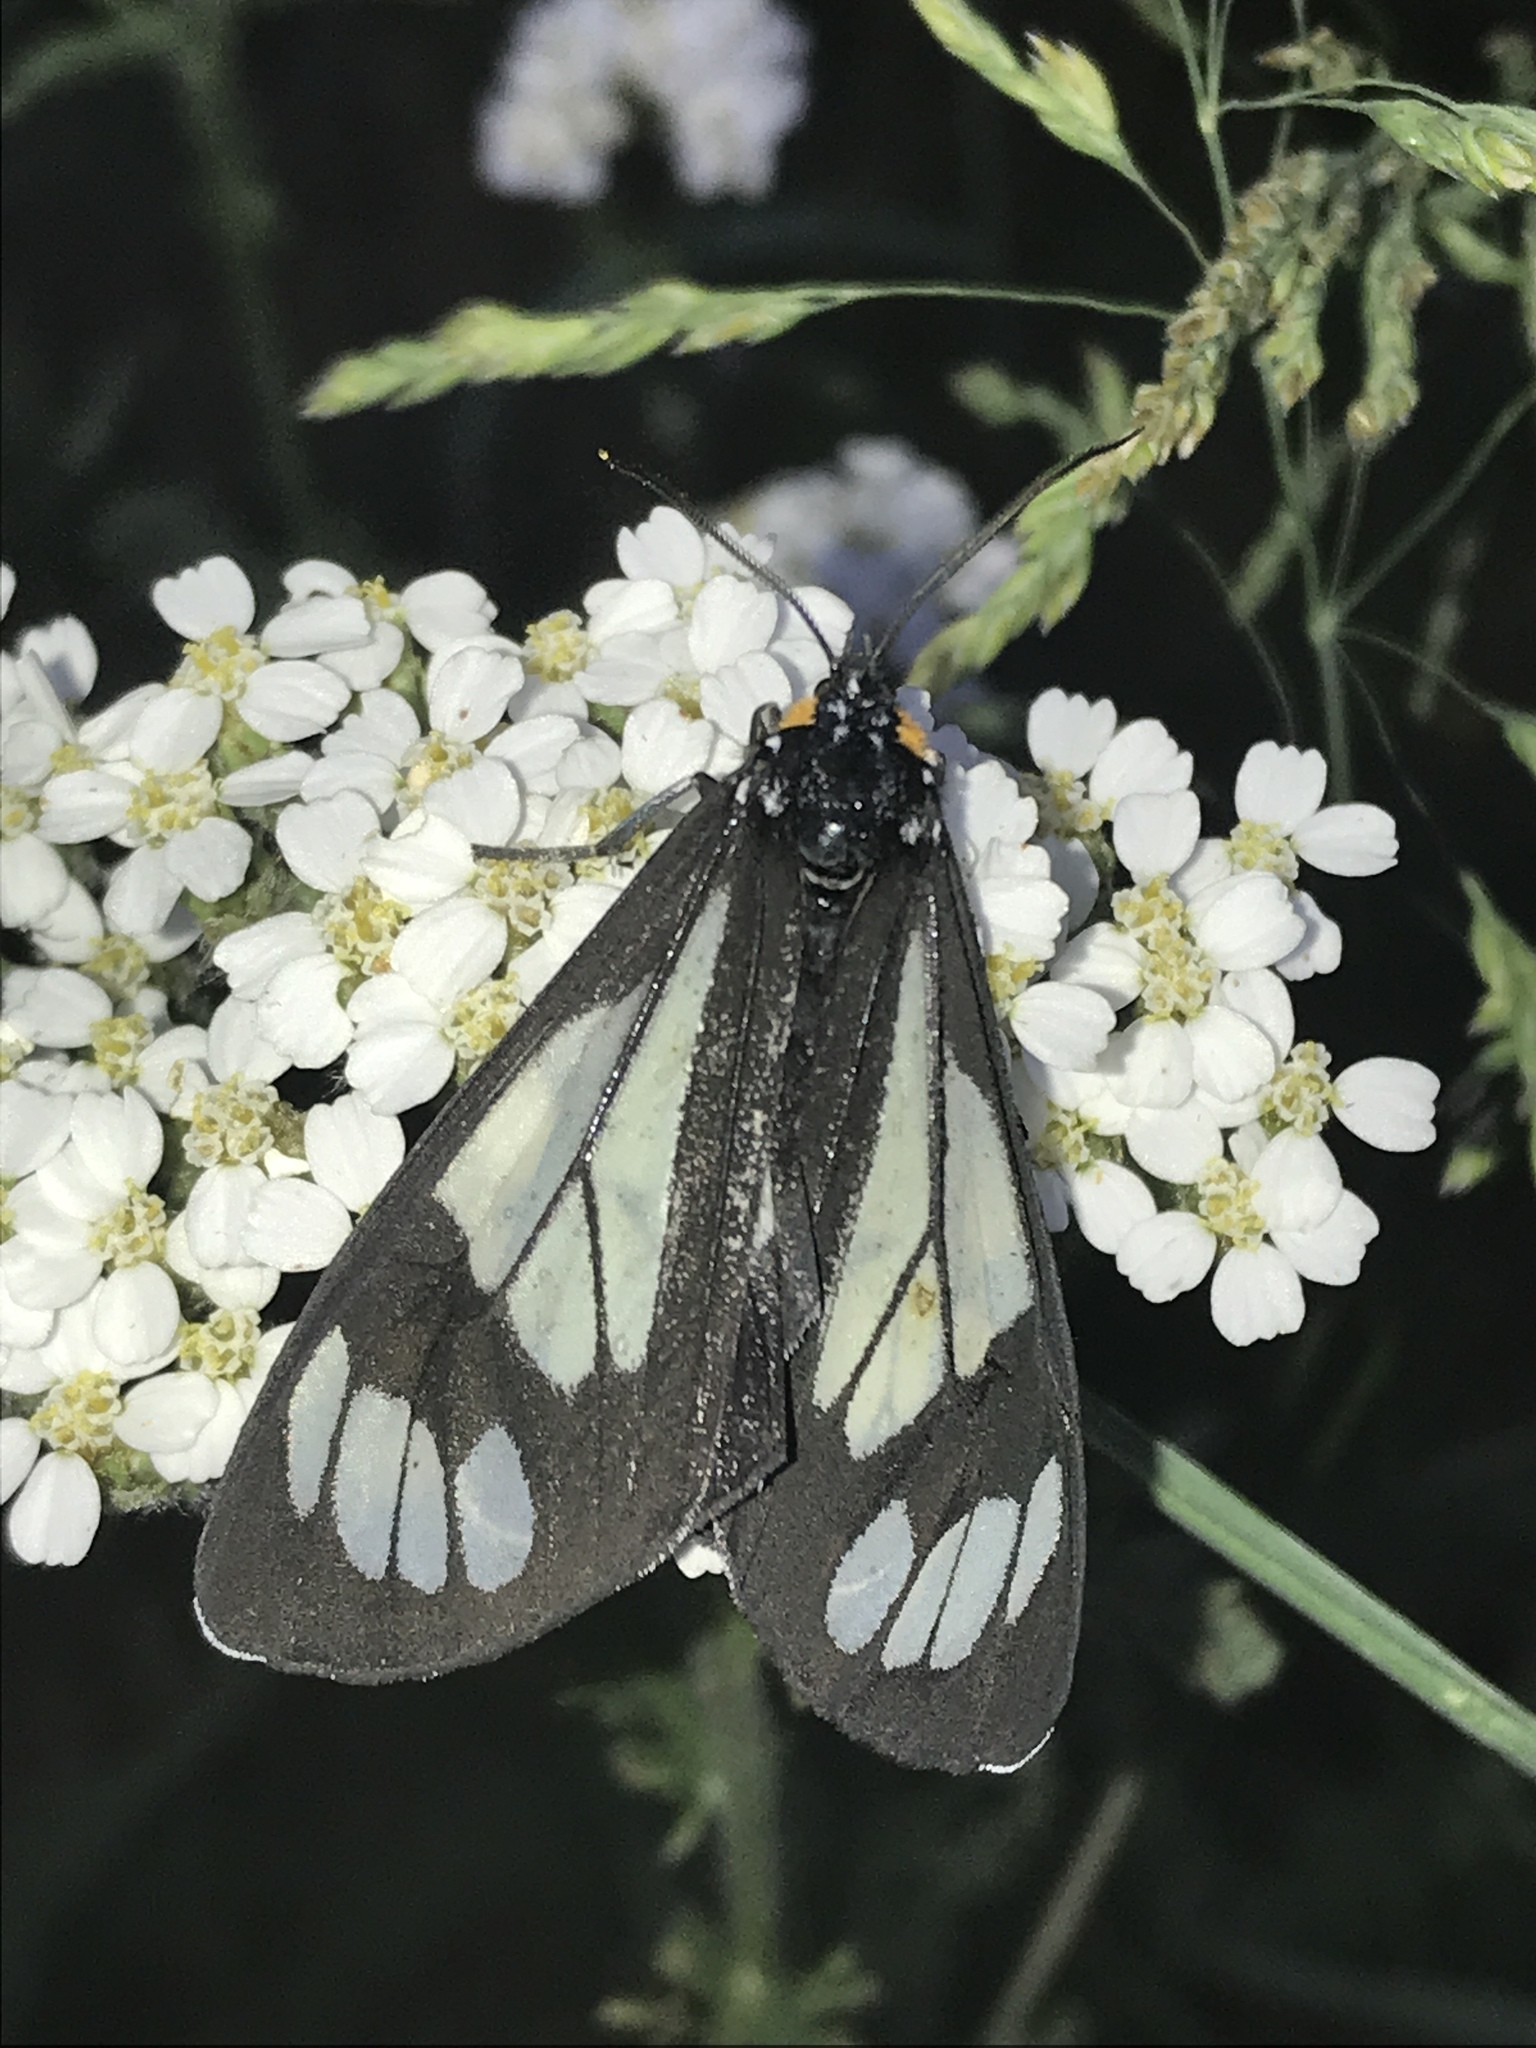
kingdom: Animalia
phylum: Arthropoda
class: Insecta
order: Lepidoptera
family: Erebidae
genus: Gnophaela
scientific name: Gnophaela vermiculata
